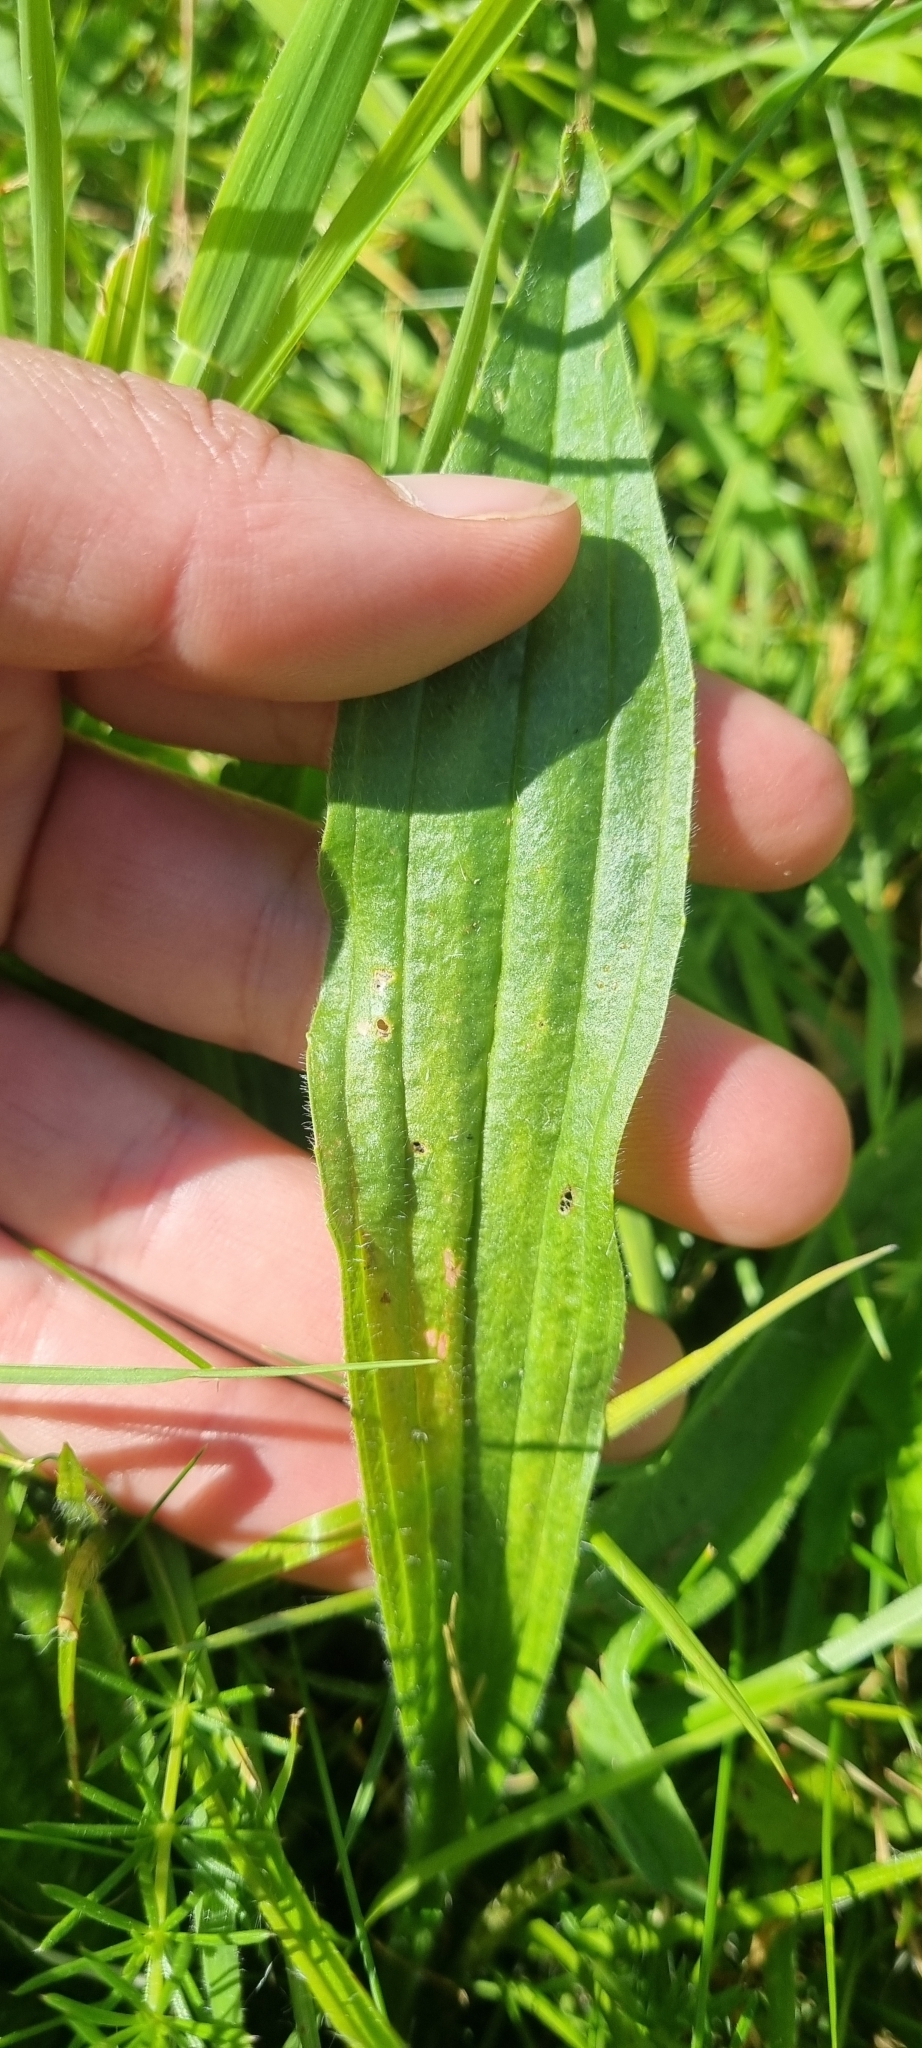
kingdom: Plantae
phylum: Tracheophyta
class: Magnoliopsida
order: Lamiales
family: Plantaginaceae
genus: Plantago
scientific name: Plantago lanceolata
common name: Ribwort plantain
